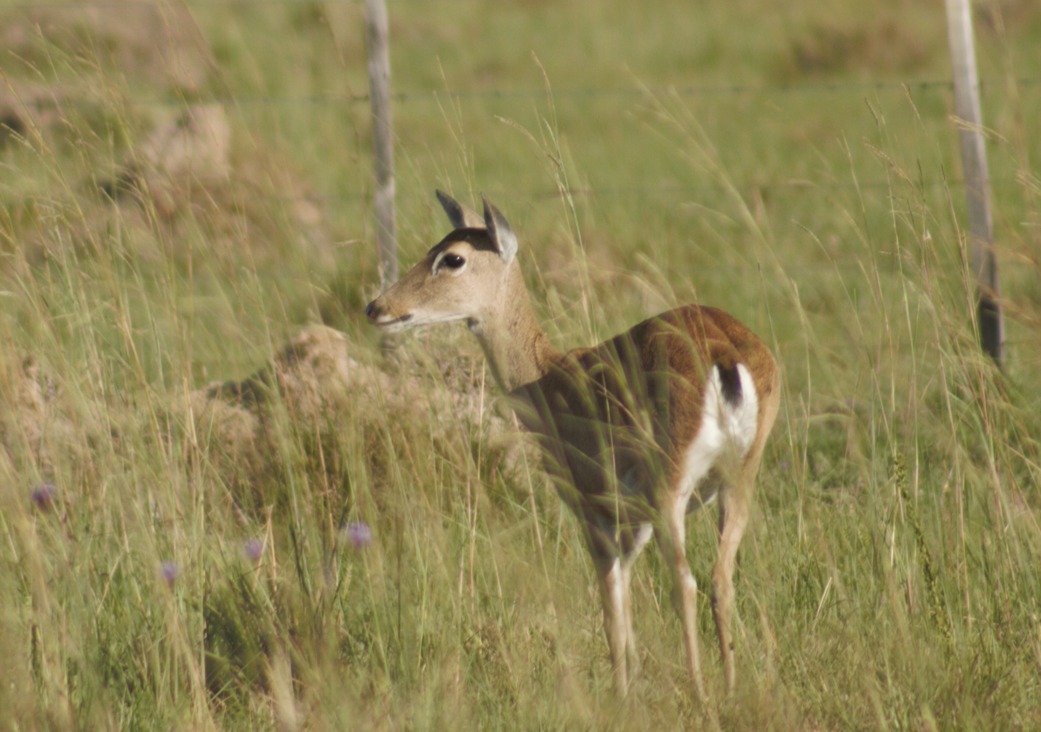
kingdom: Animalia
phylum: Chordata
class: Mammalia
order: Artiodactyla
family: Cervidae
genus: Ozotoceros
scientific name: Ozotoceros bezoarticus
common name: Pampas deer
